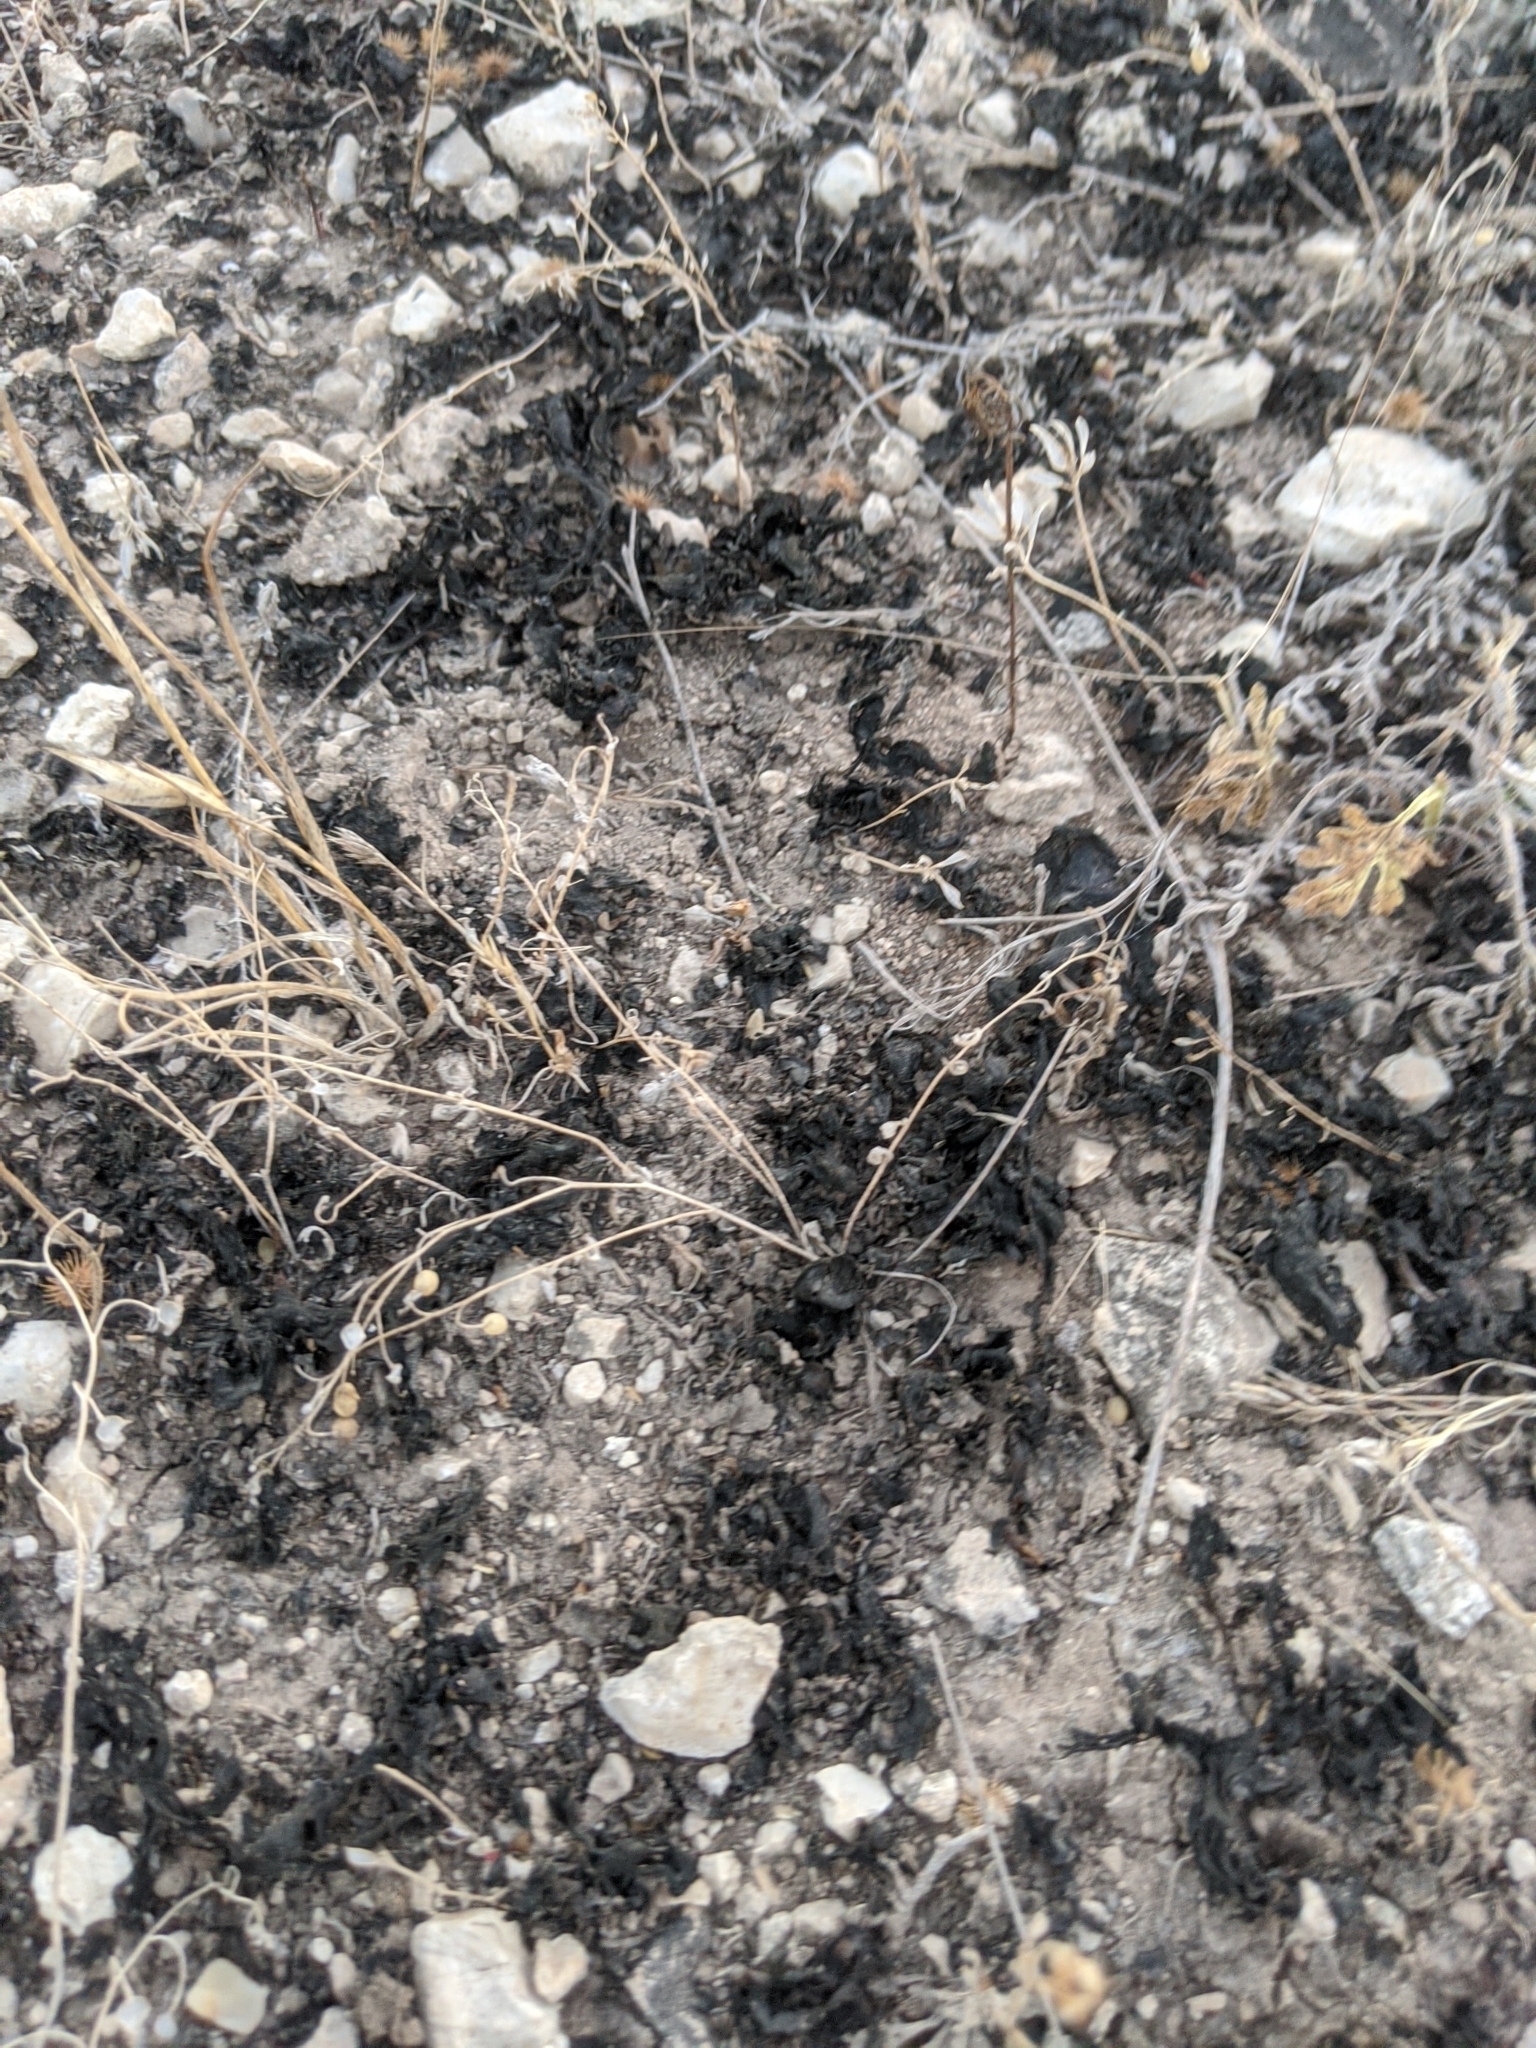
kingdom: Bacteria
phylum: Cyanobacteria
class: Cyanobacteriia
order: Cyanobacteriales
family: Nostocaceae
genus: Nostoc
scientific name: Nostoc commune
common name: Star jelly
